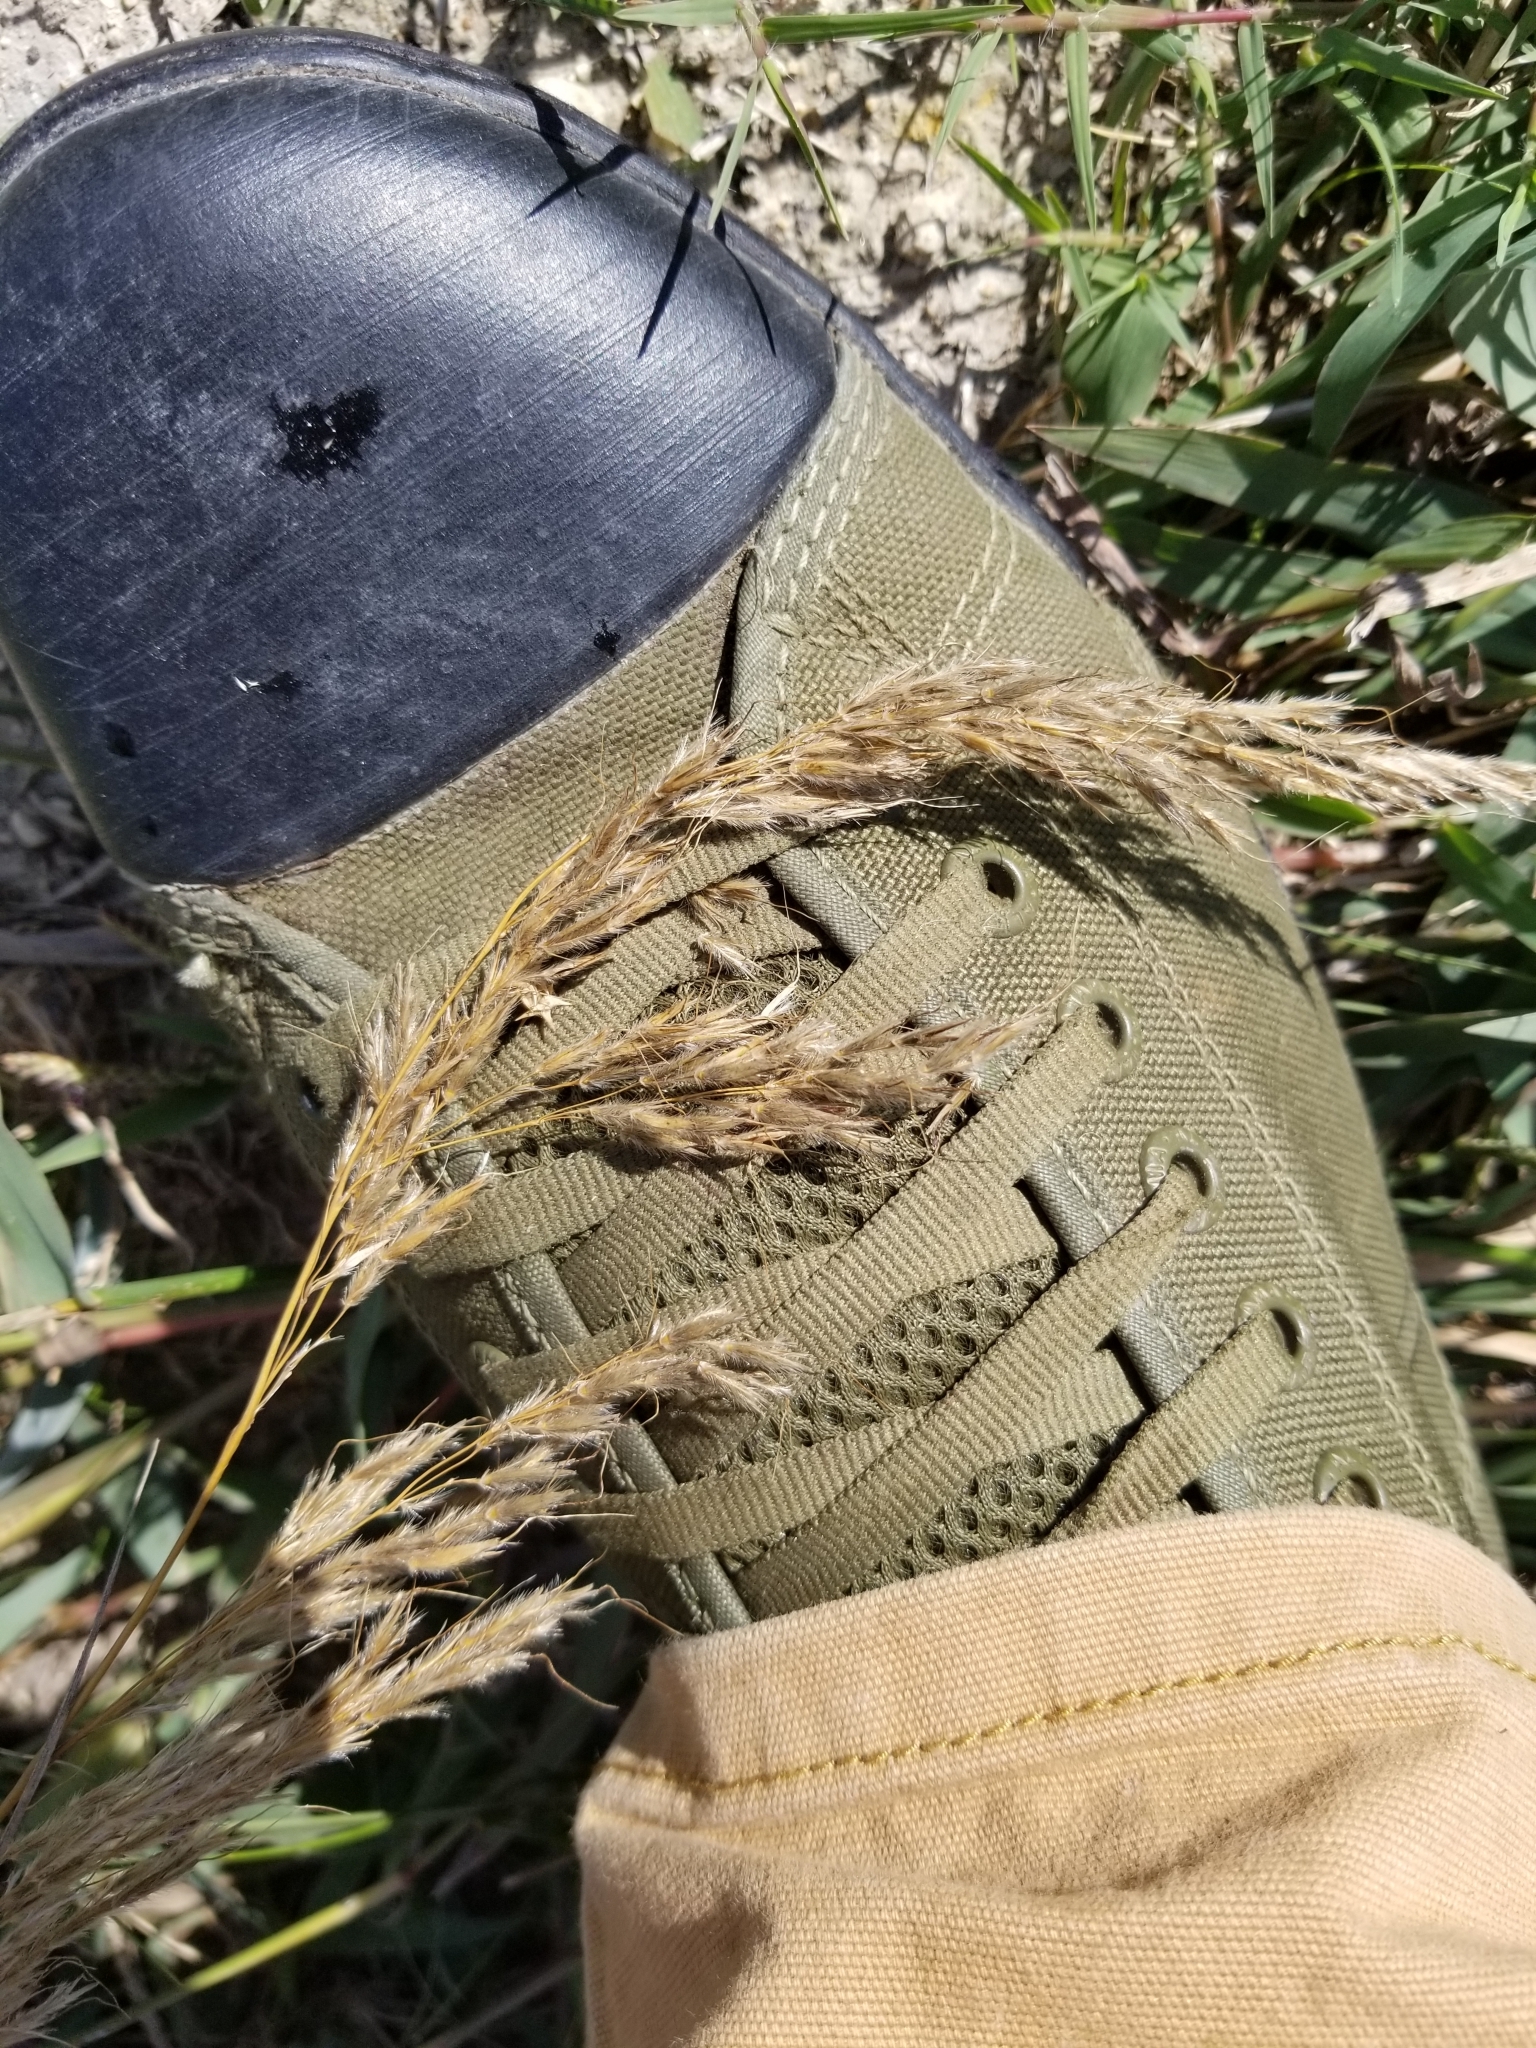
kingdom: Plantae
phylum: Tracheophyta
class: Liliopsida
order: Poales
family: Poaceae
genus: Sorghastrum
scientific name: Sorghastrum nutans
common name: Indian grass
